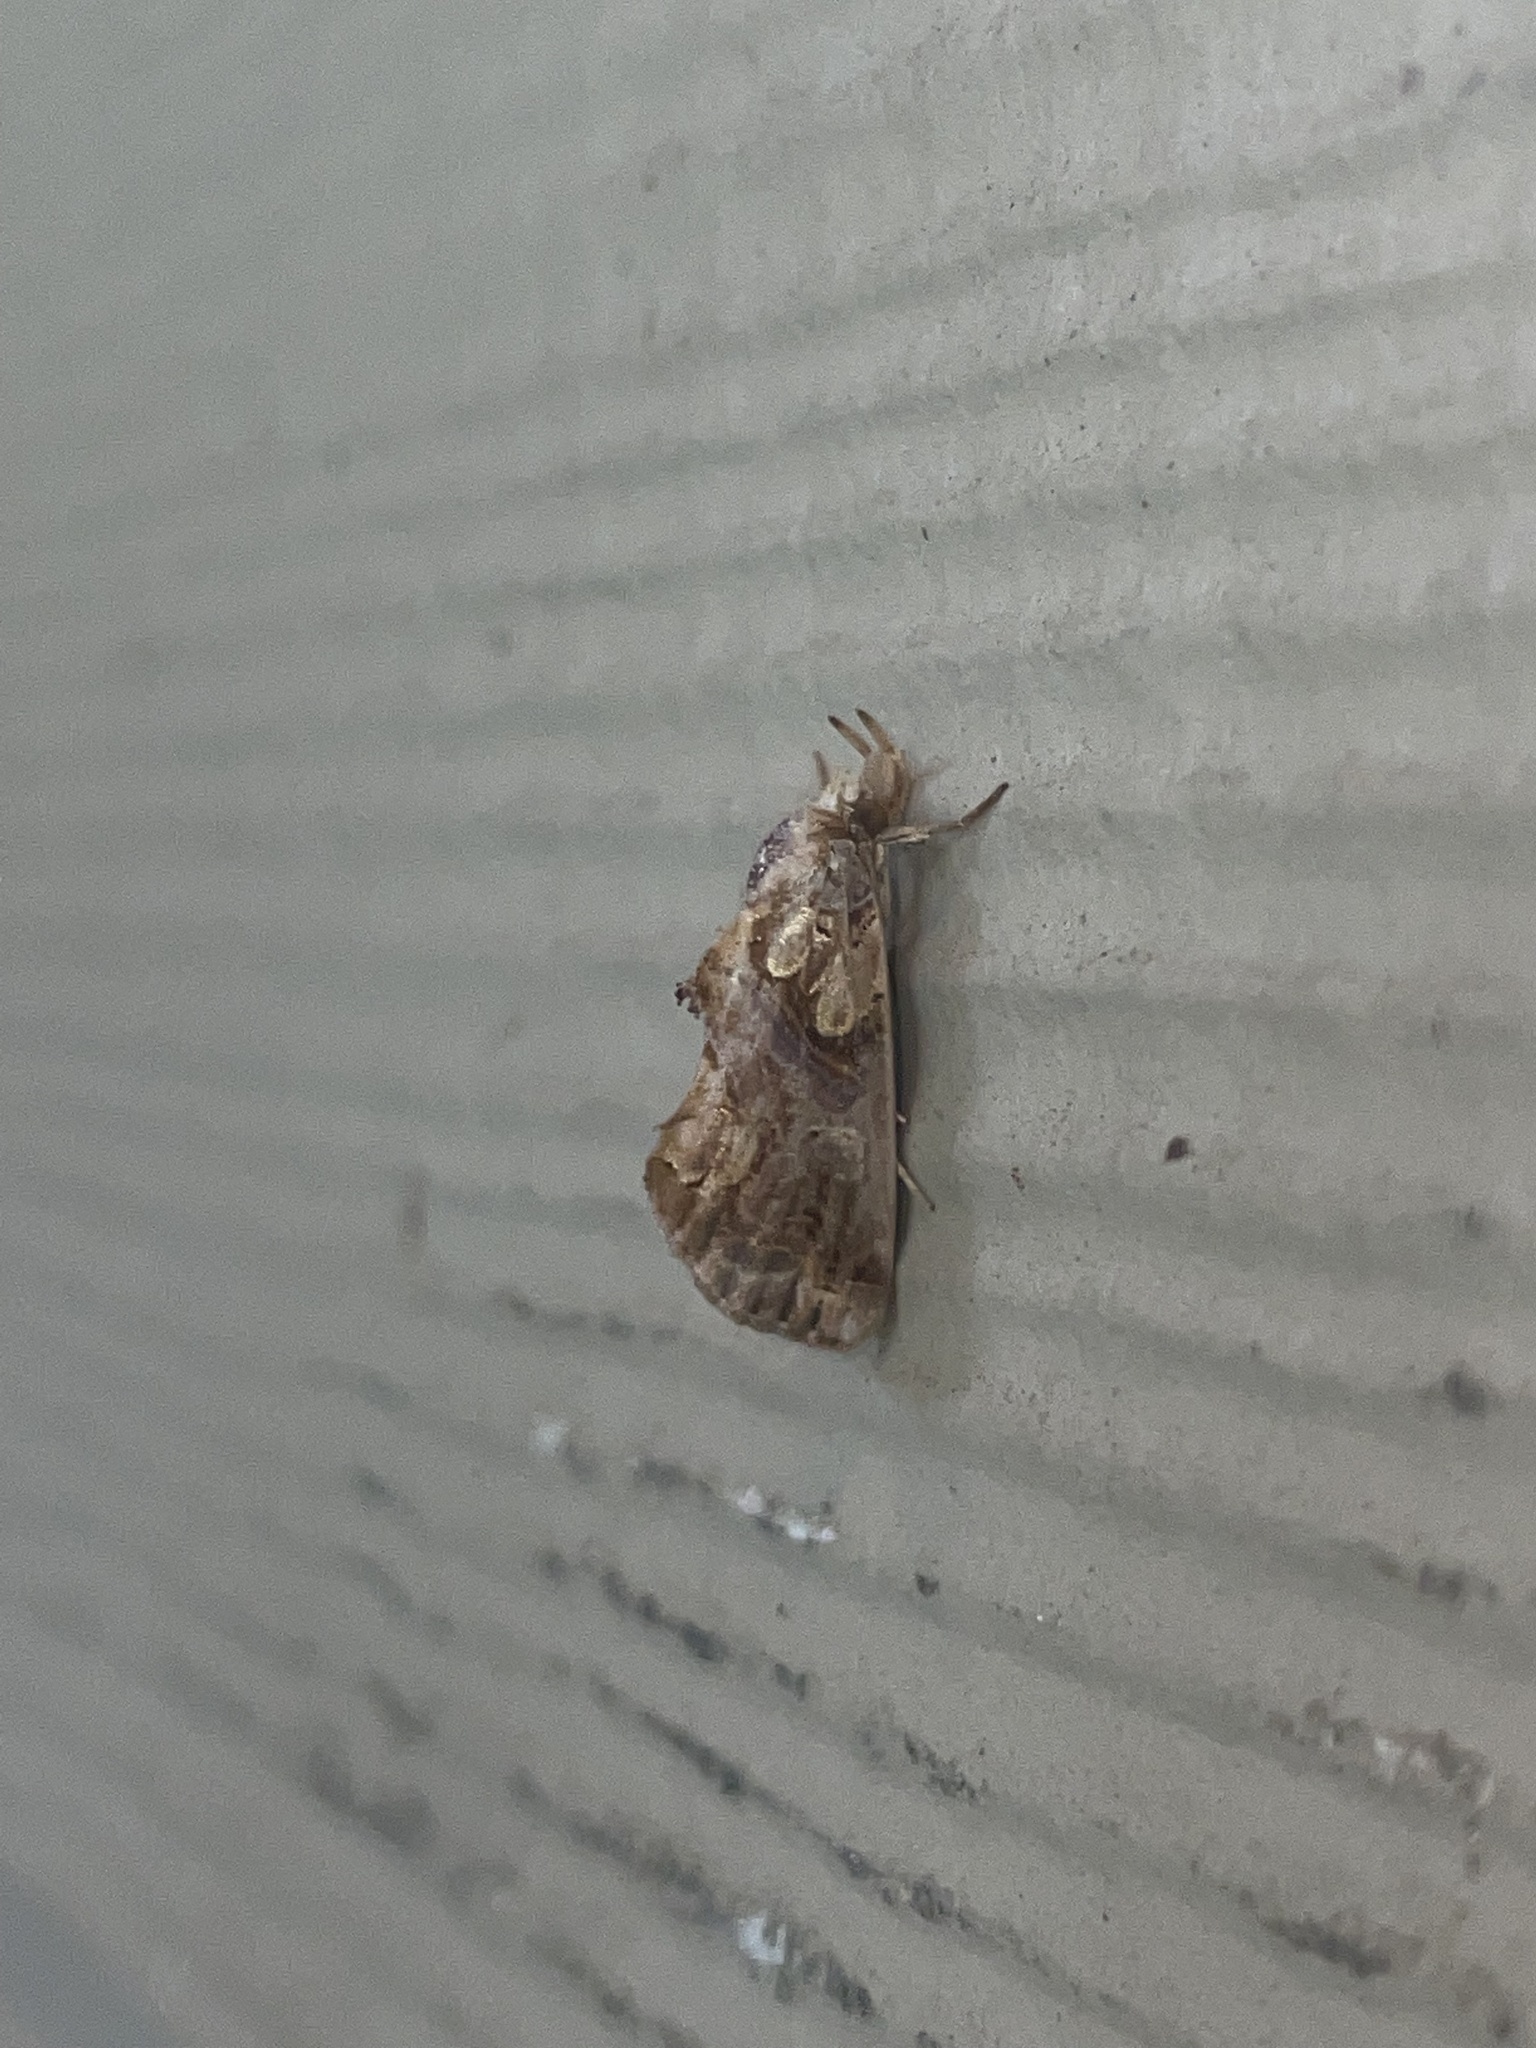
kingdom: Animalia
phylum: Arthropoda
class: Insecta
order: Lepidoptera
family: Erebidae
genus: Plusiodonta
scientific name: Plusiodonta compressipalpis
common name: Moonseed moth
